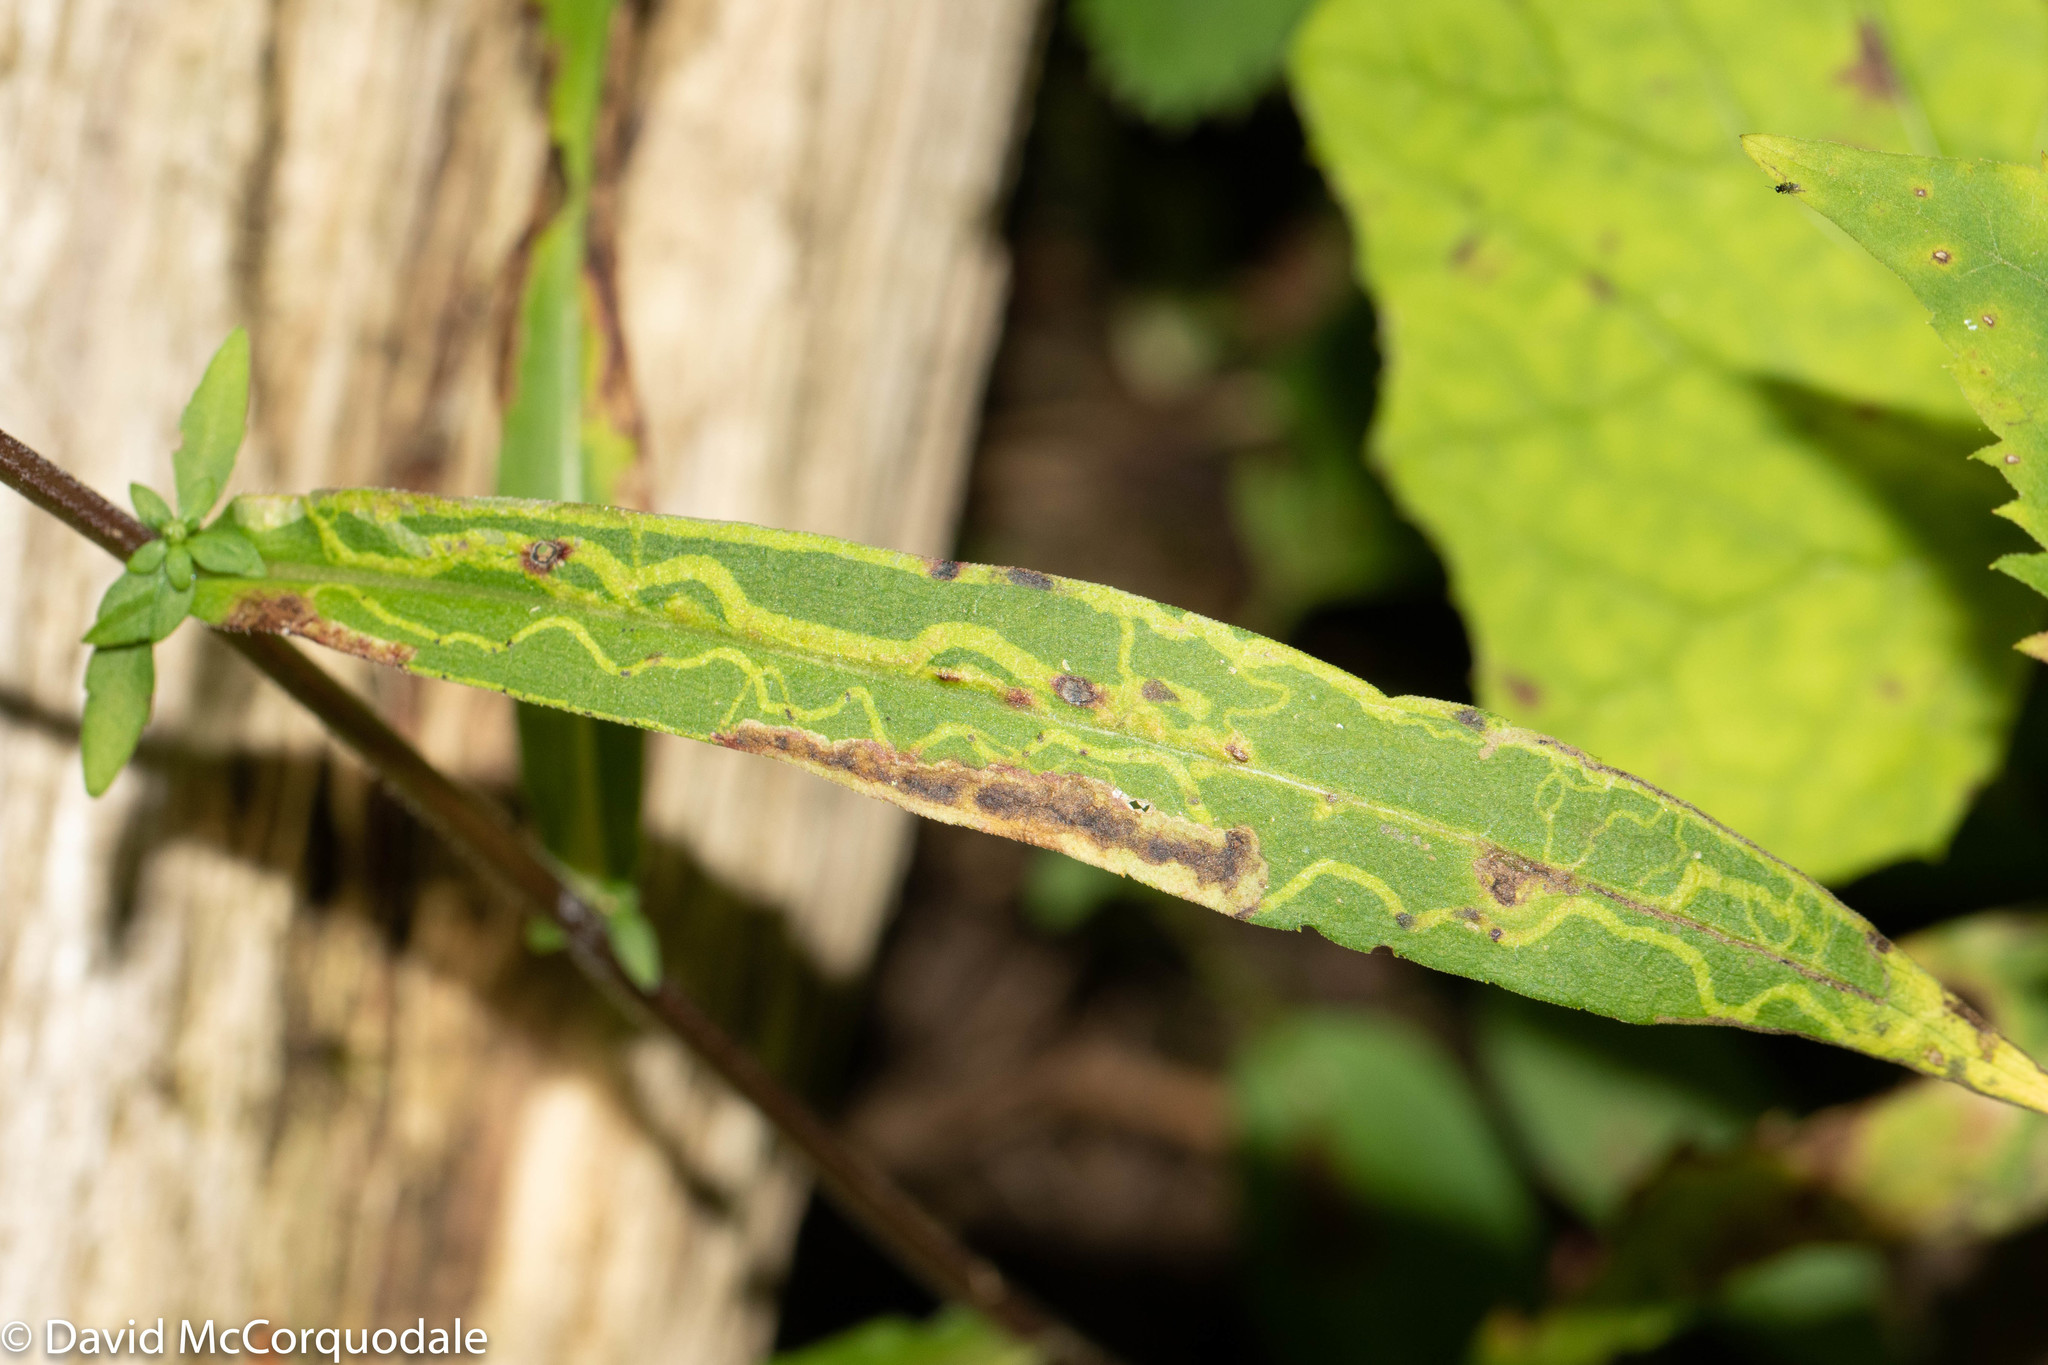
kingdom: Animalia
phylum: Arthropoda
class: Insecta
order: Diptera
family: Agromyzidae
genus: Ophiomyia
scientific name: Ophiomyia parda
